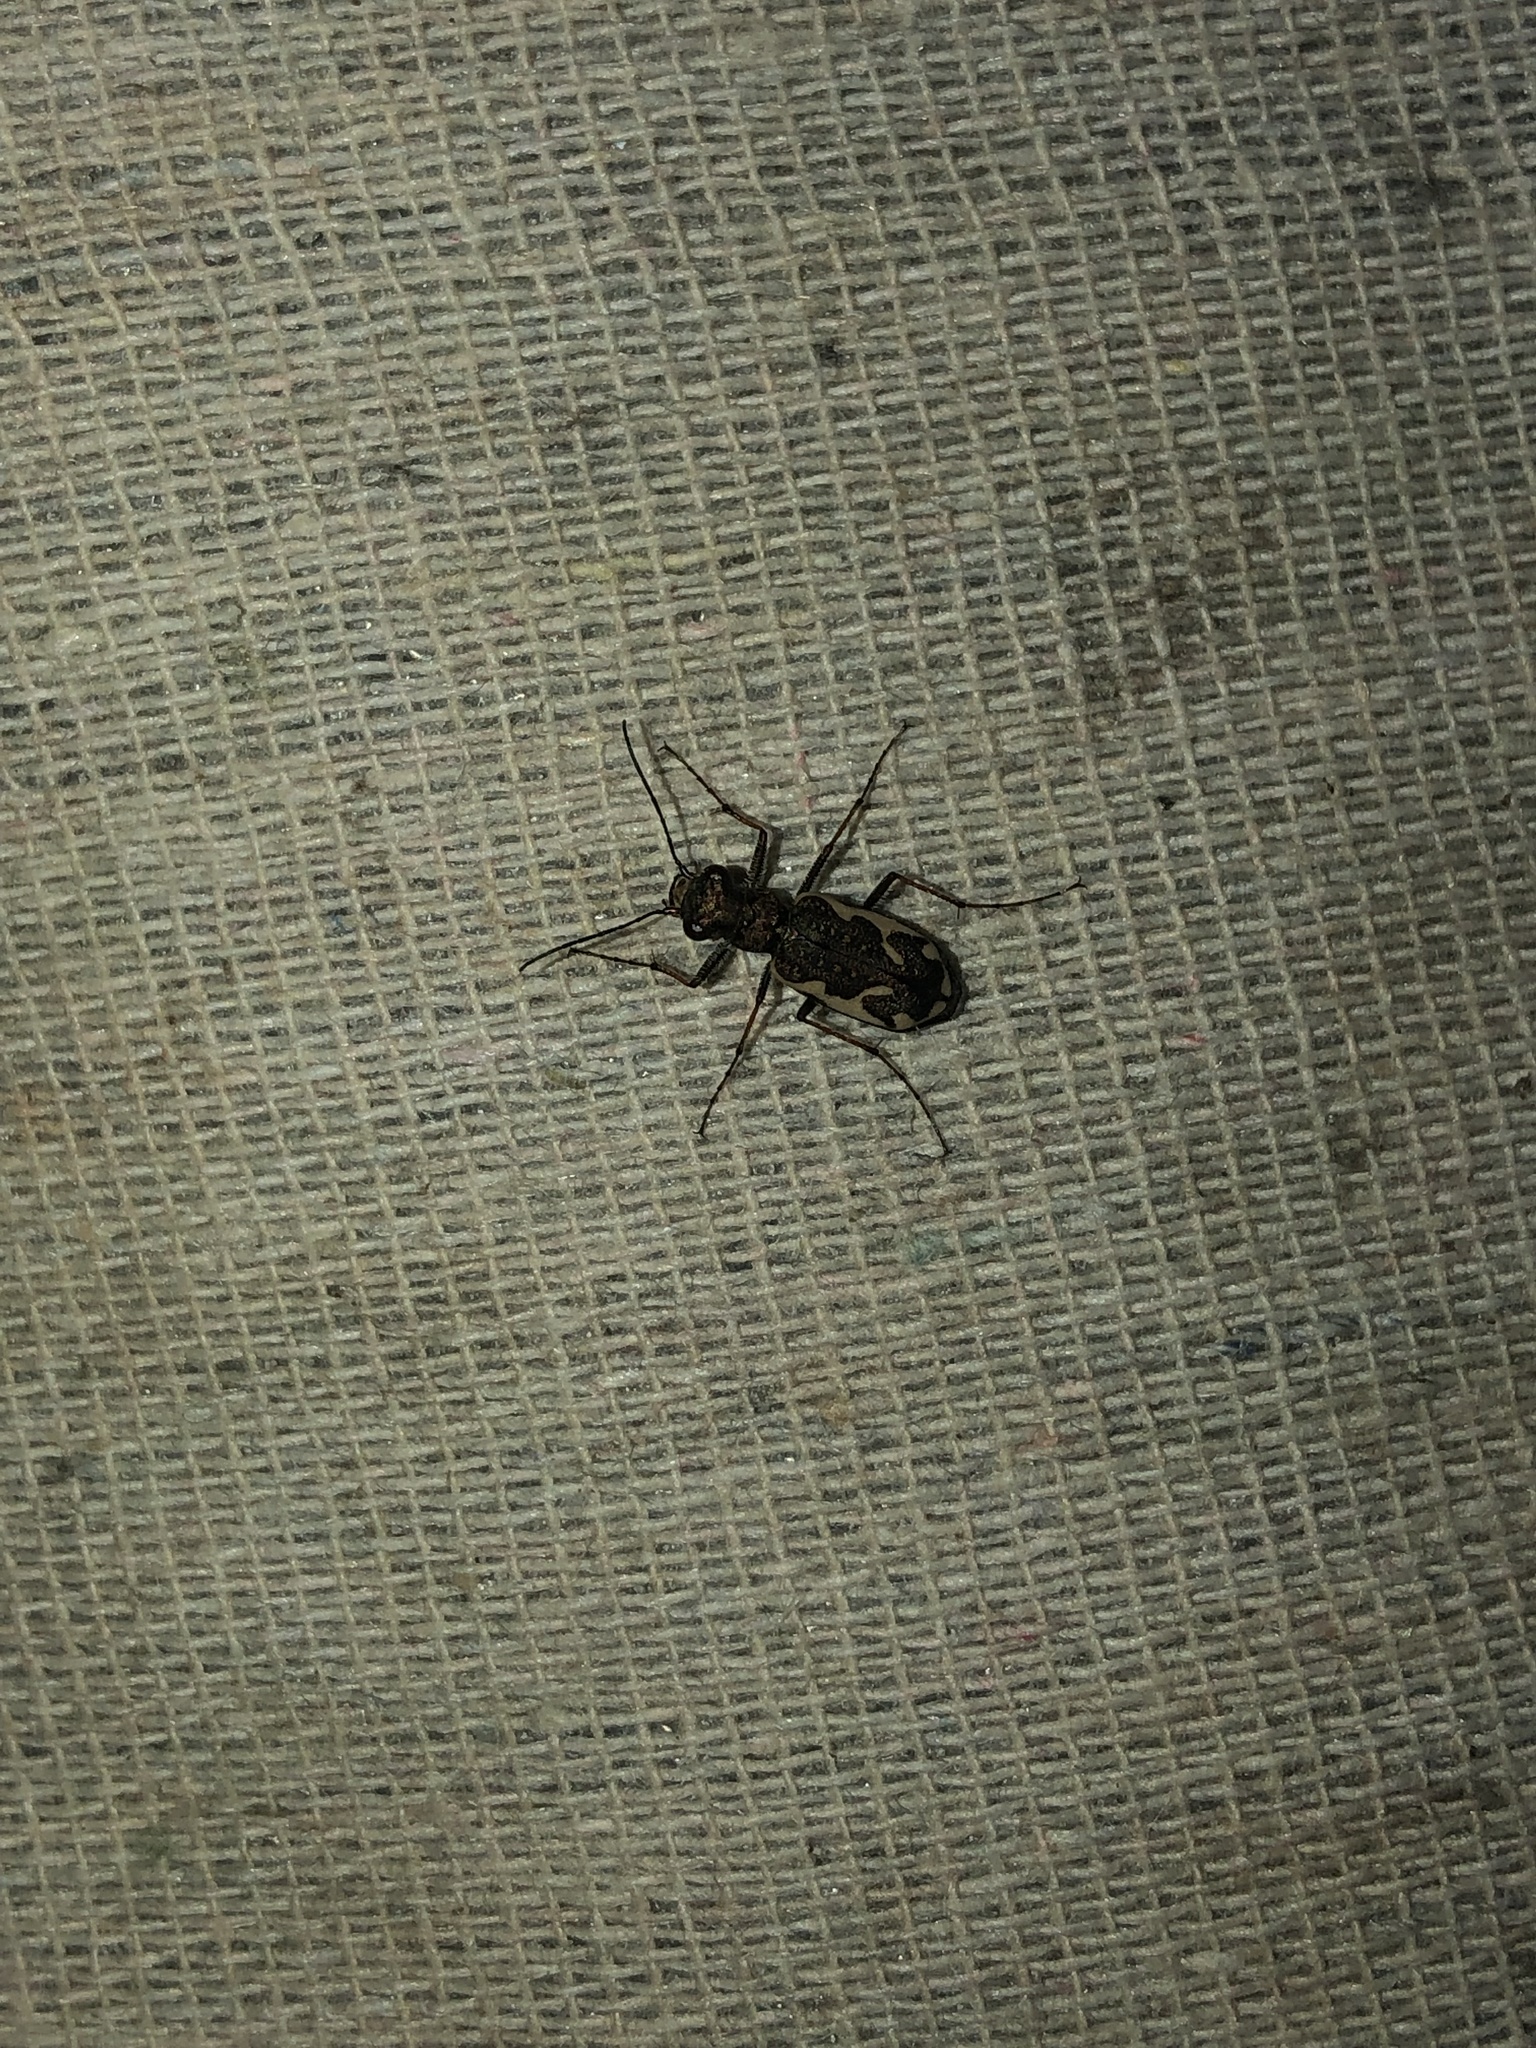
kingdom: Animalia
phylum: Arthropoda
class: Insecta
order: Coleoptera
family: Carabidae
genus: Neocicindela
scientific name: Neocicindela tuberculata
